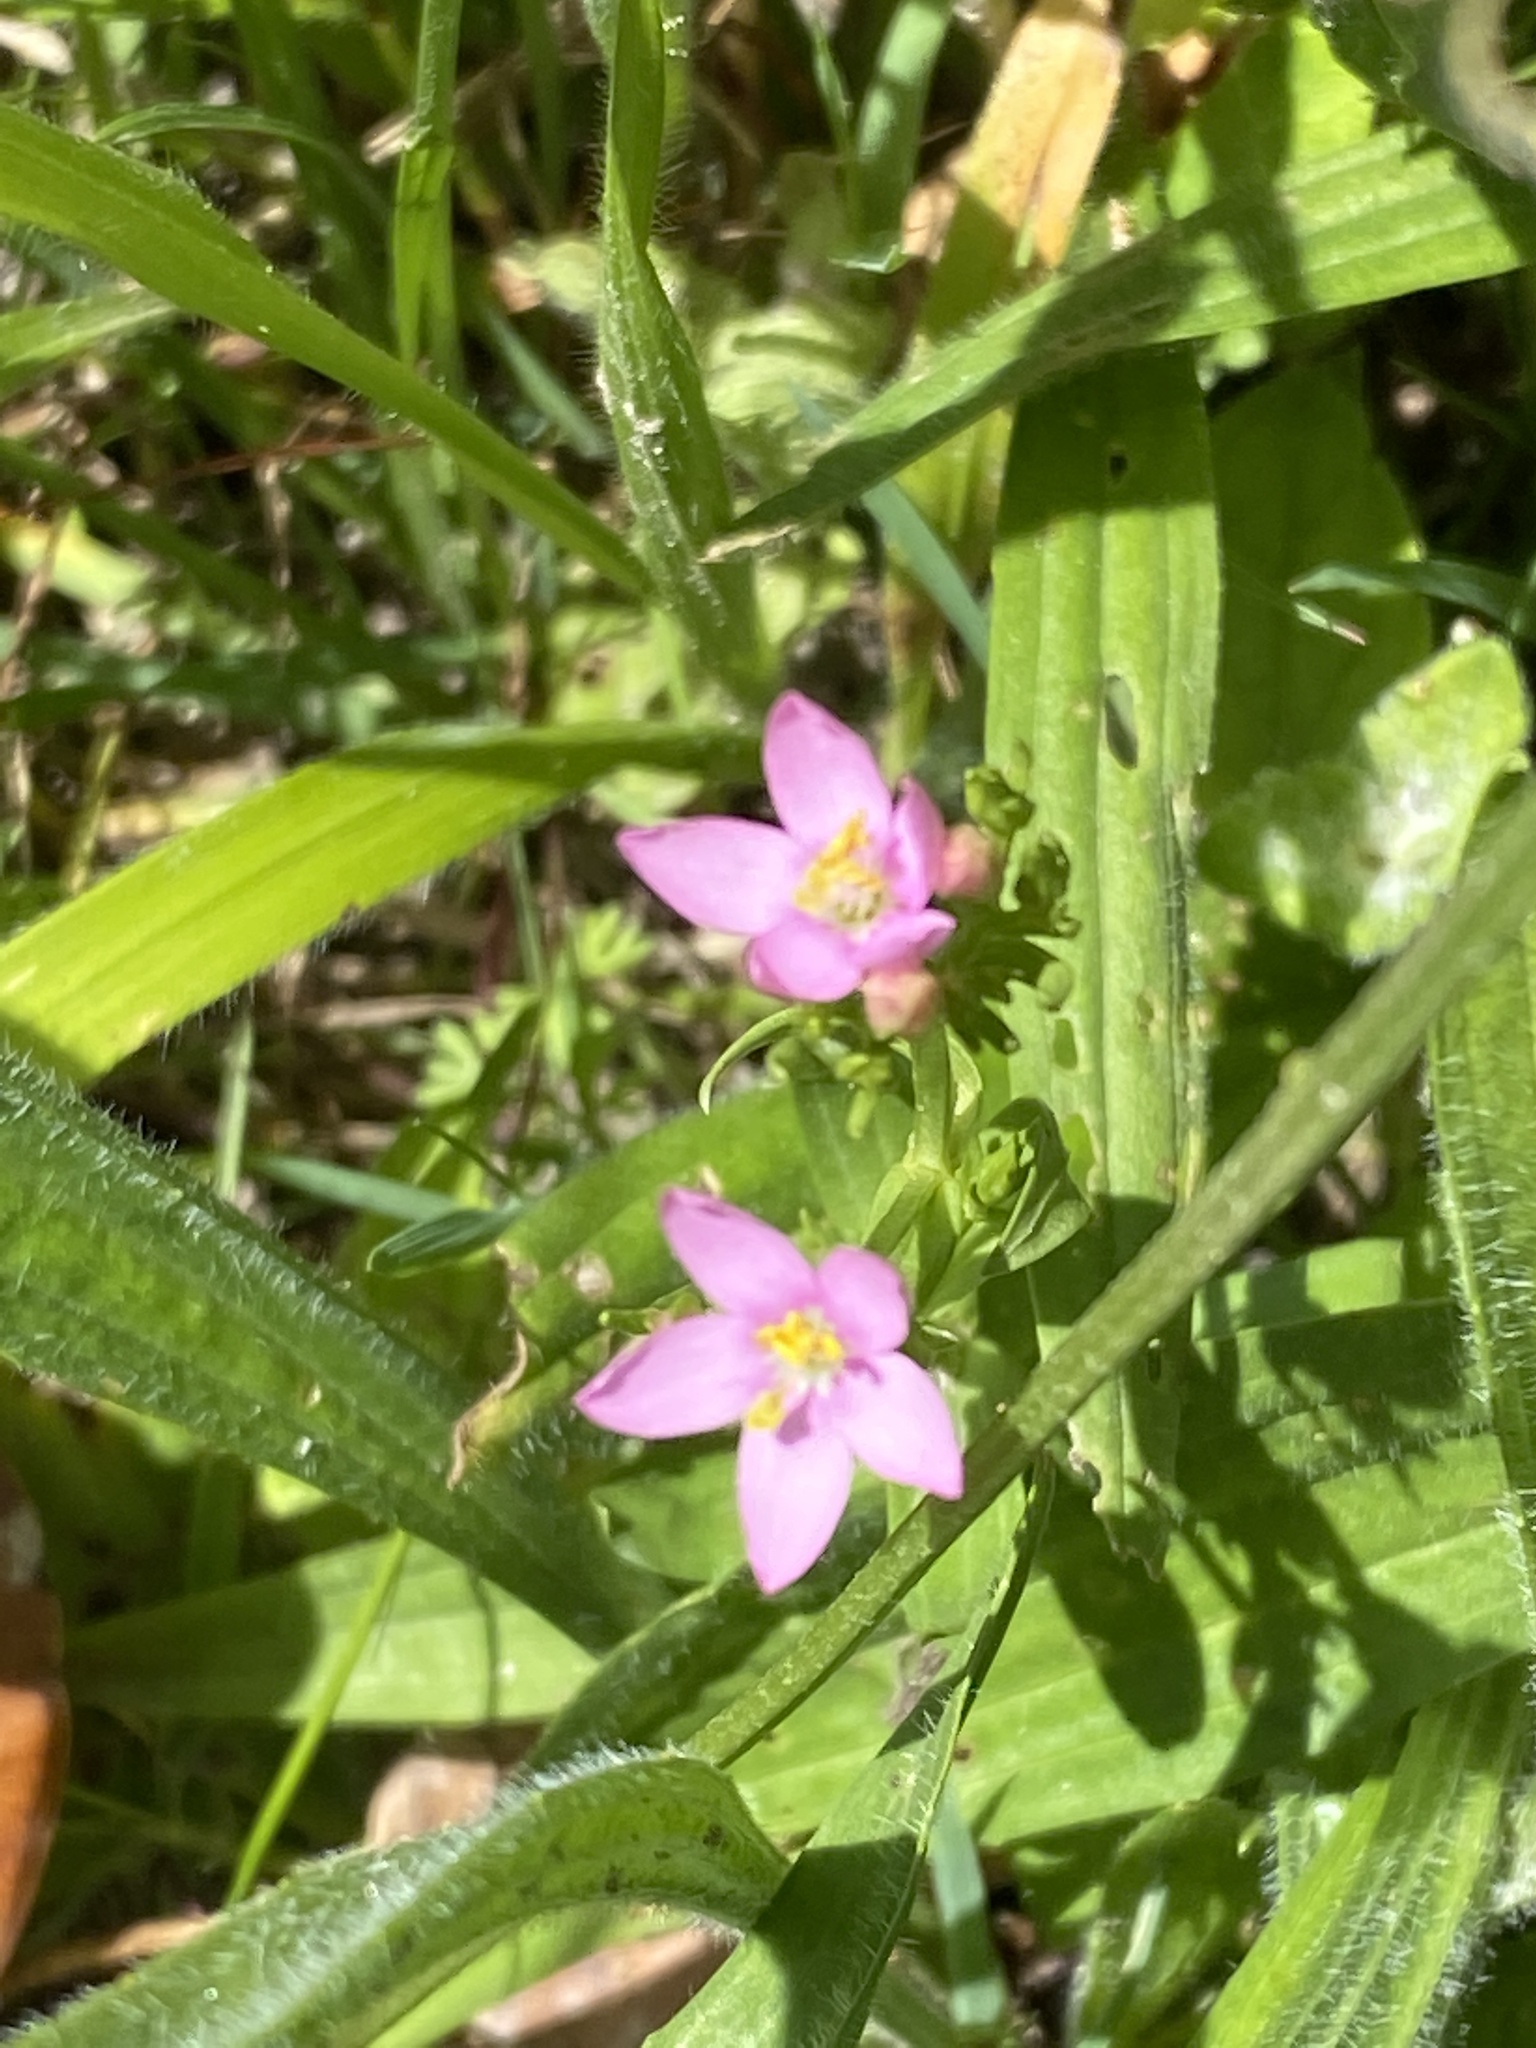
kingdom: Plantae
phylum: Tracheophyta
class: Magnoliopsida
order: Gentianales
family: Gentianaceae
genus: Centaurium
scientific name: Centaurium erythraea
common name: Common centaury
